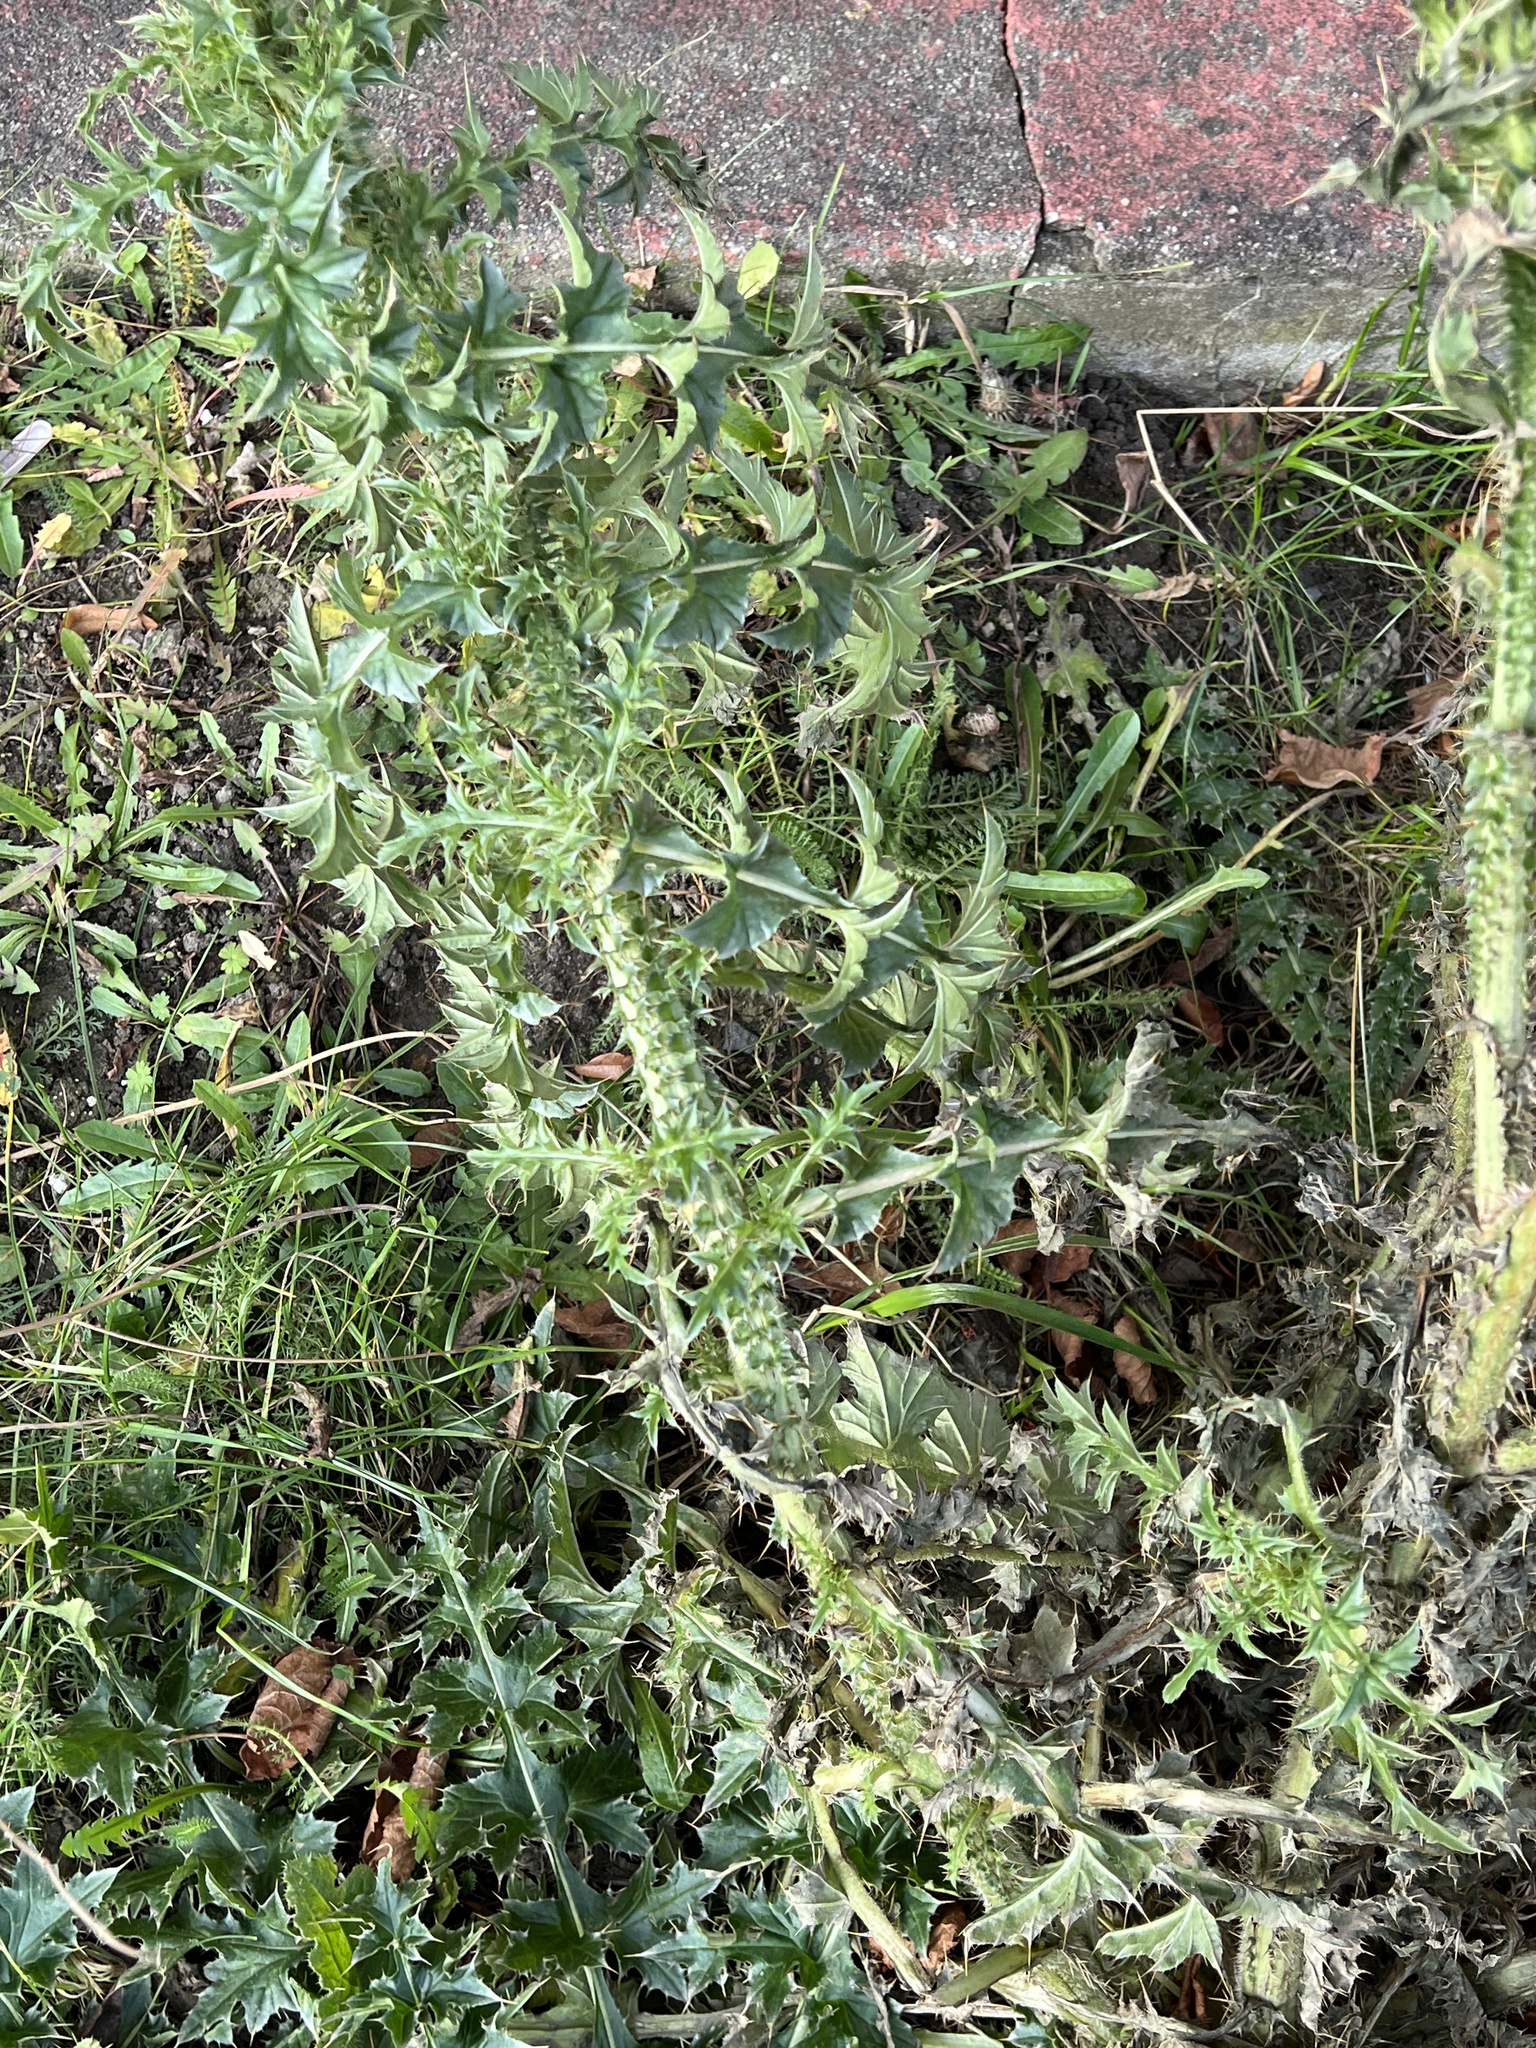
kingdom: Plantae
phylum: Tracheophyta
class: Magnoliopsida
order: Asterales
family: Asteraceae
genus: Carduus
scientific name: Carduus acanthoides
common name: Plumeless thistle
